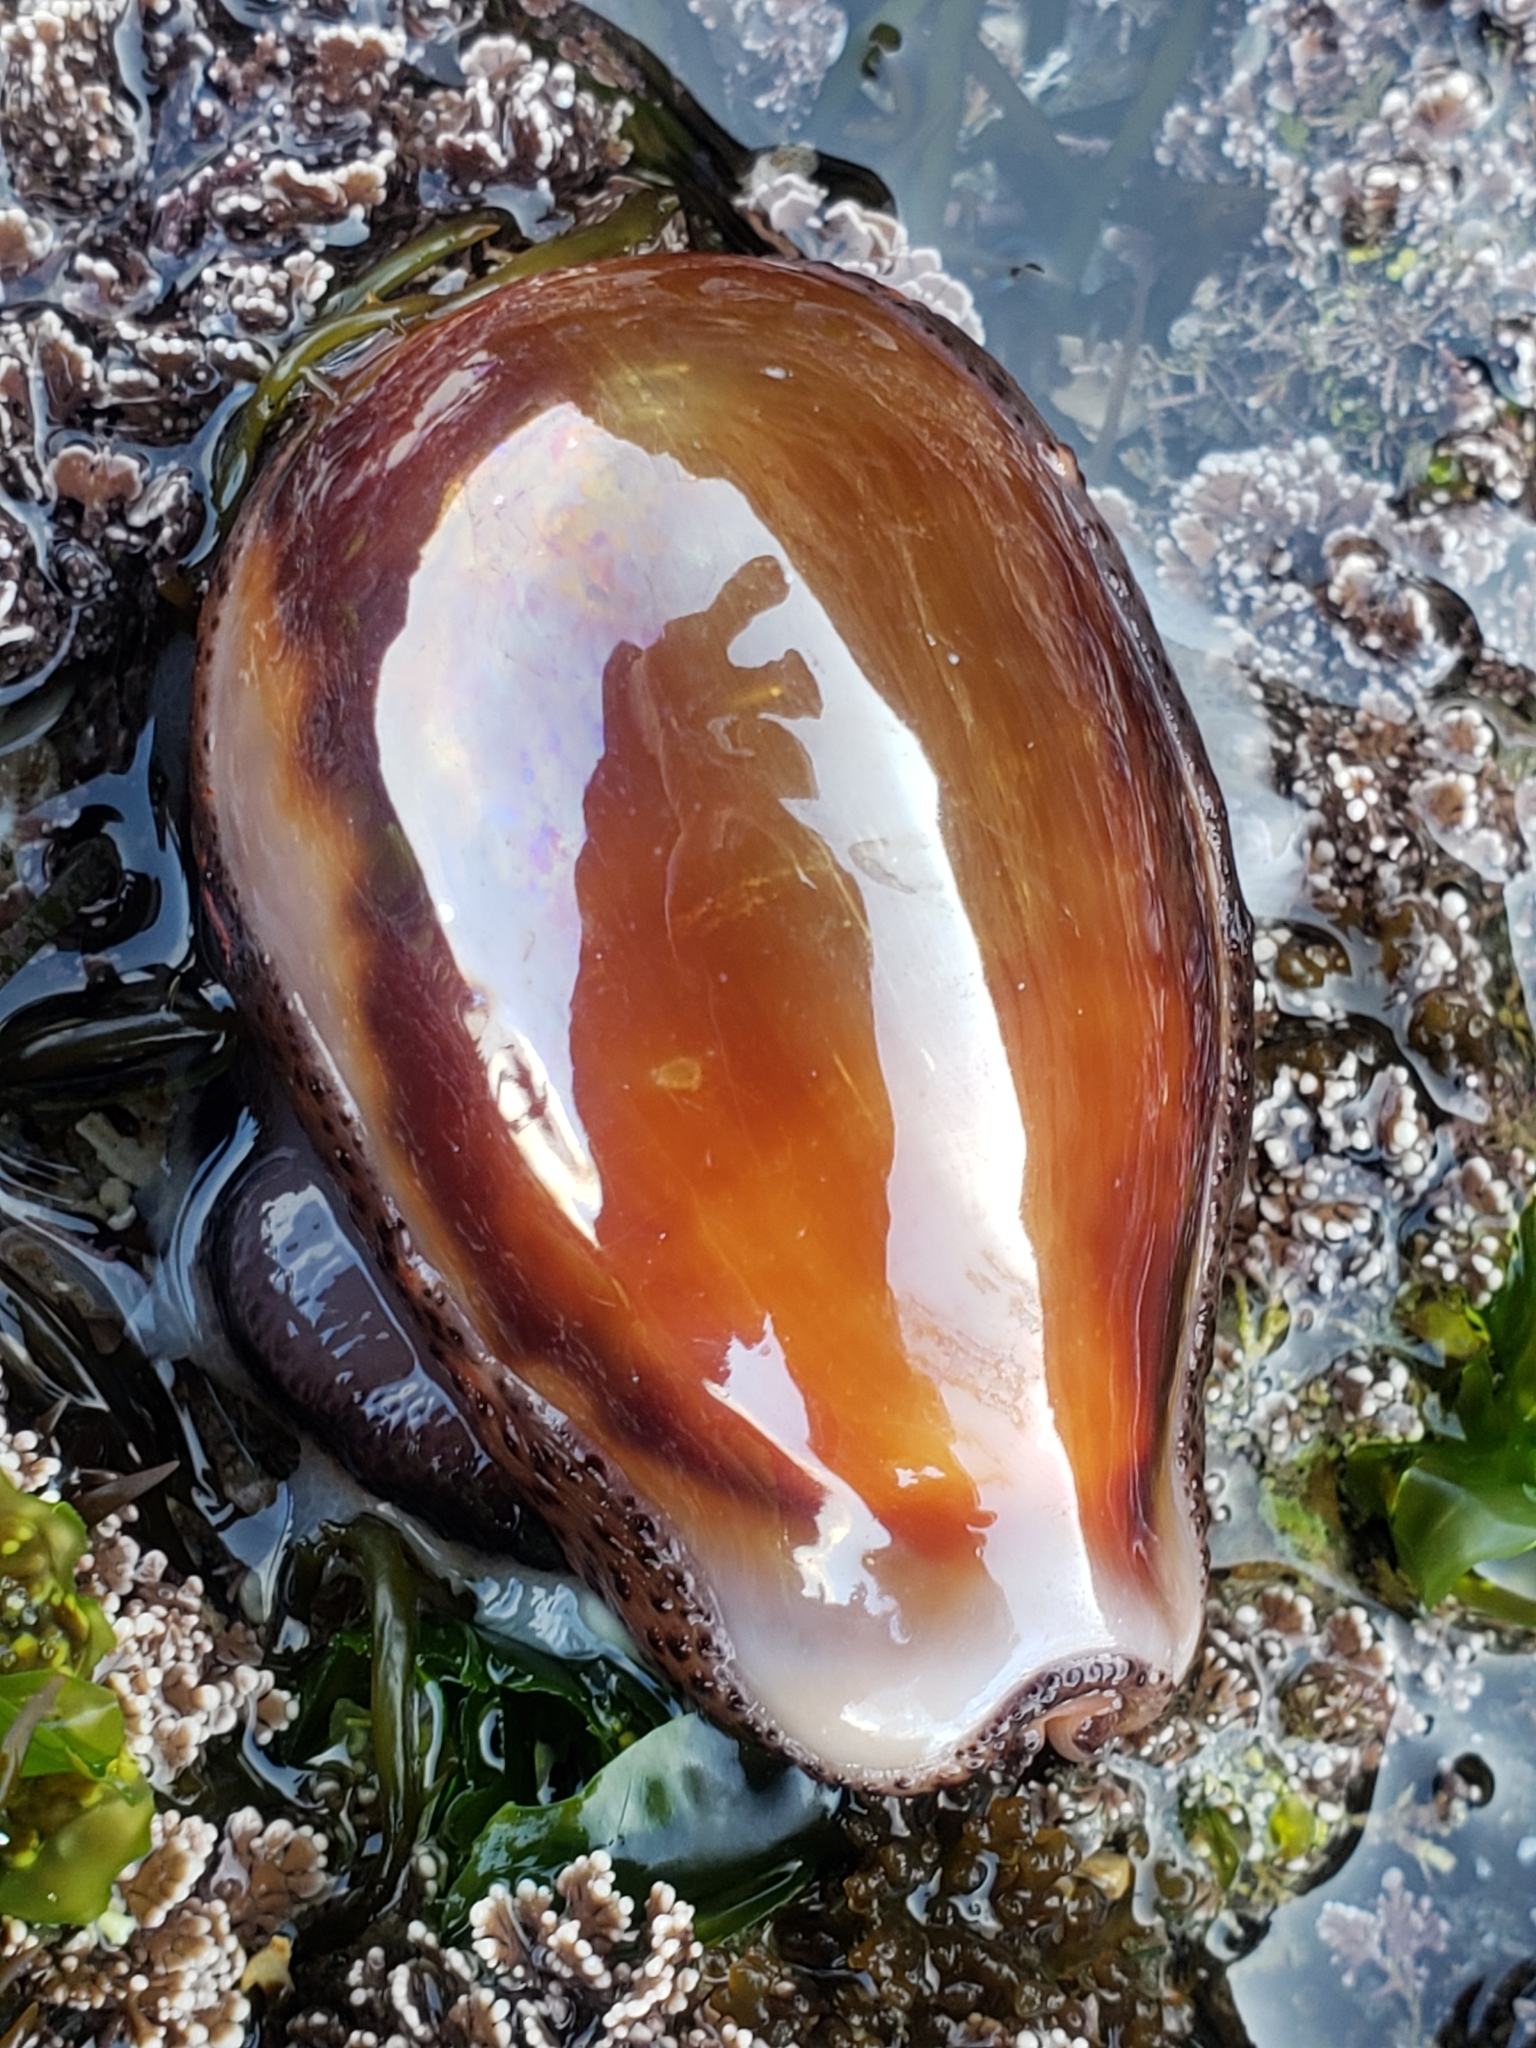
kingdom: Animalia
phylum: Mollusca
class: Gastropoda
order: Littorinimorpha
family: Cypraeidae
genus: Neobernaya
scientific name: Neobernaya spadicea
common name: Chestnut cowrie
